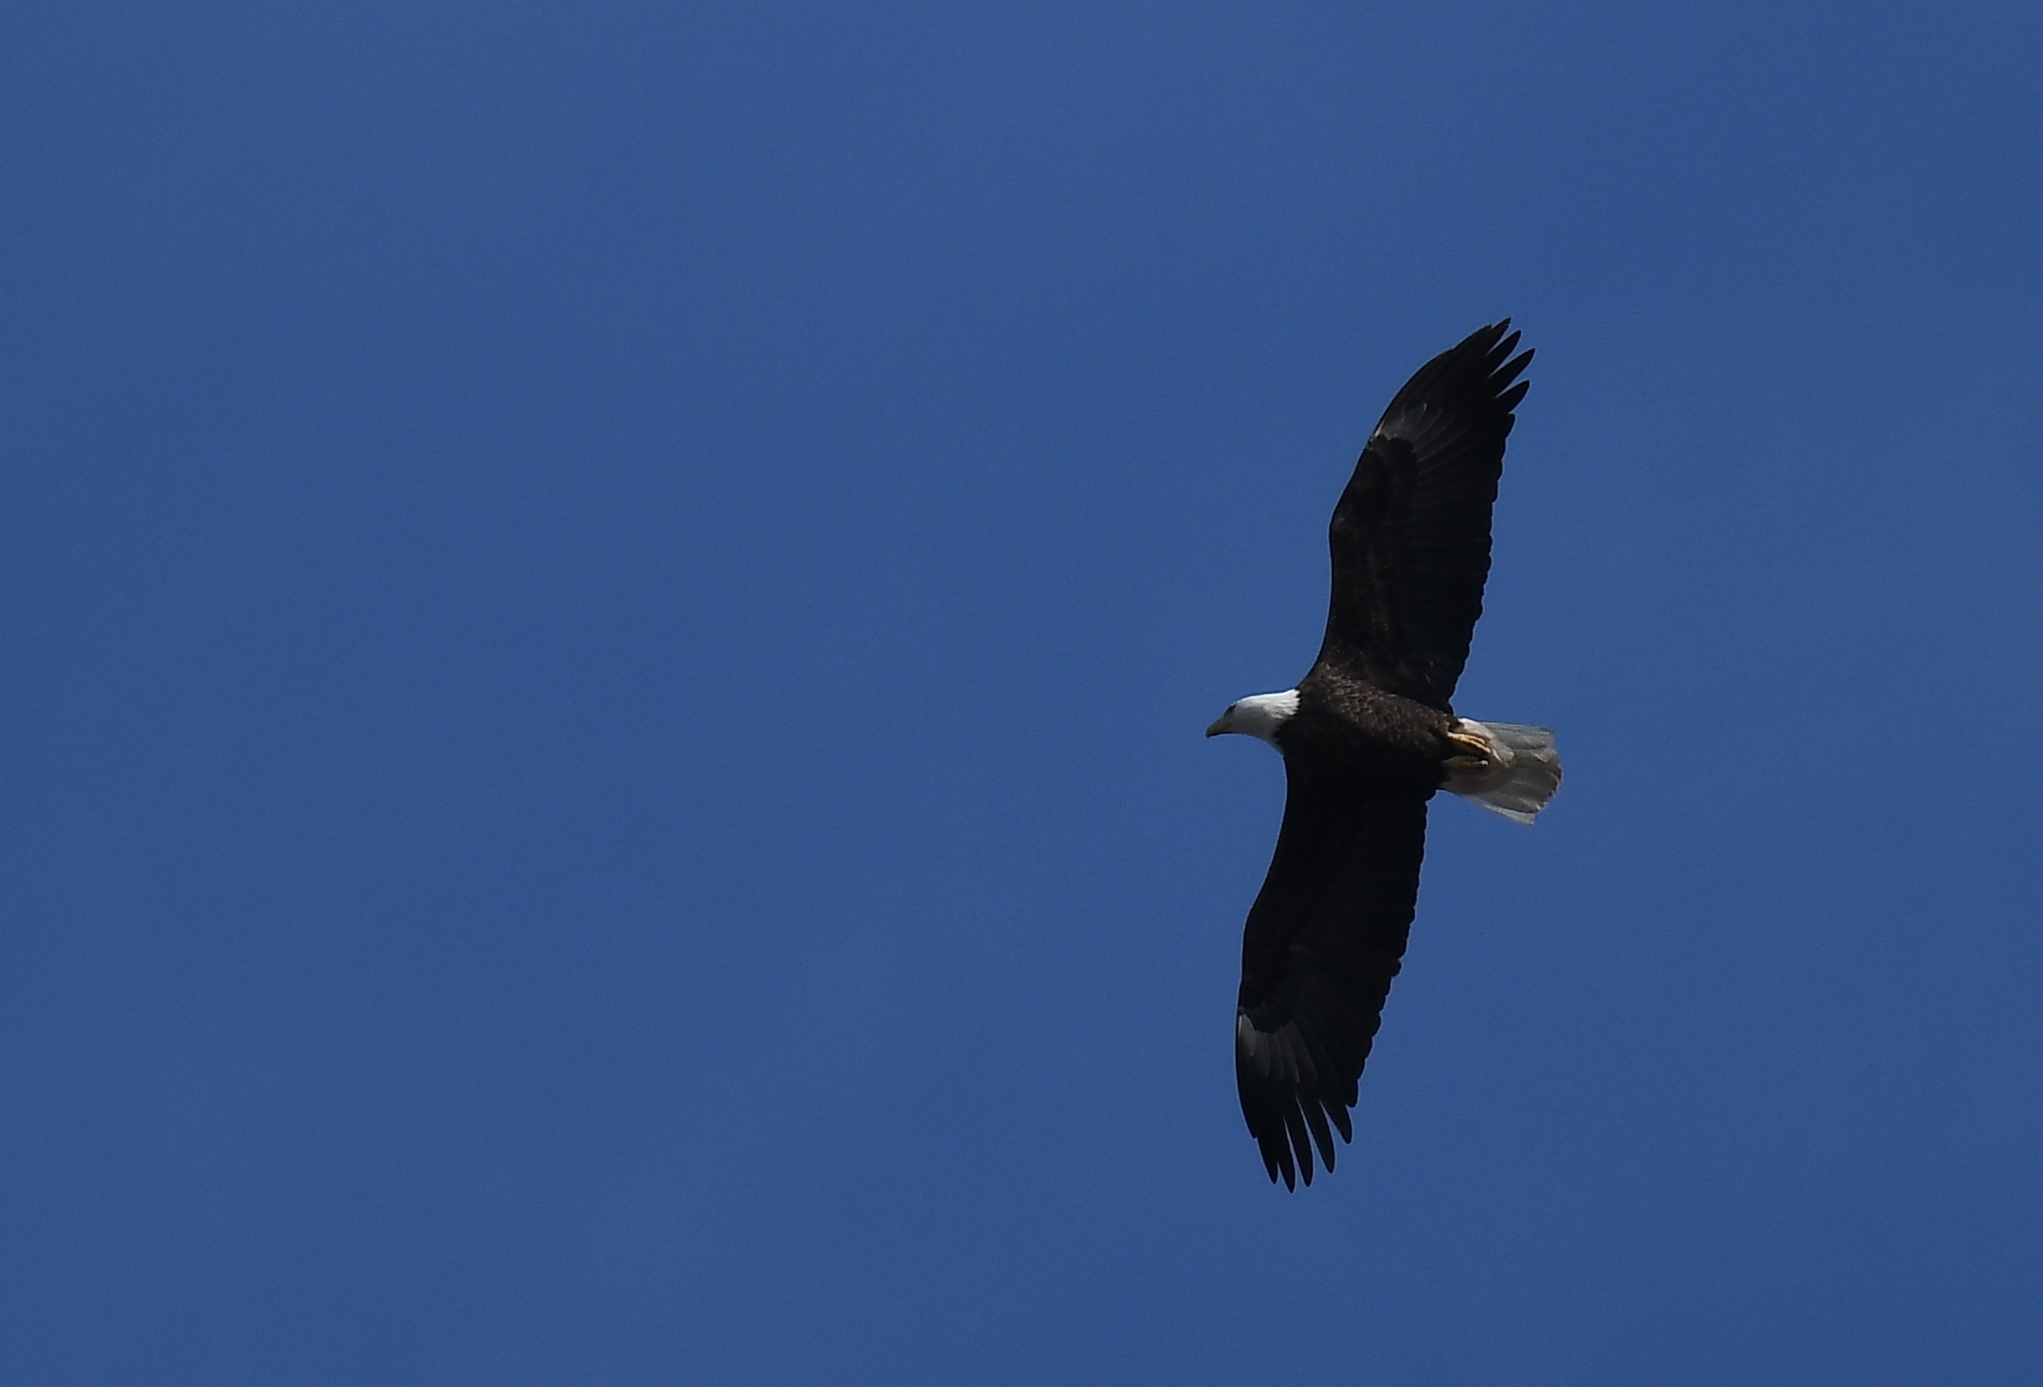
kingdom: Animalia
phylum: Chordata
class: Aves
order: Accipitriformes
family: Accipitridae
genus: Haliaeetus
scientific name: Haliaeetus leucocephalus
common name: Bald eagle
